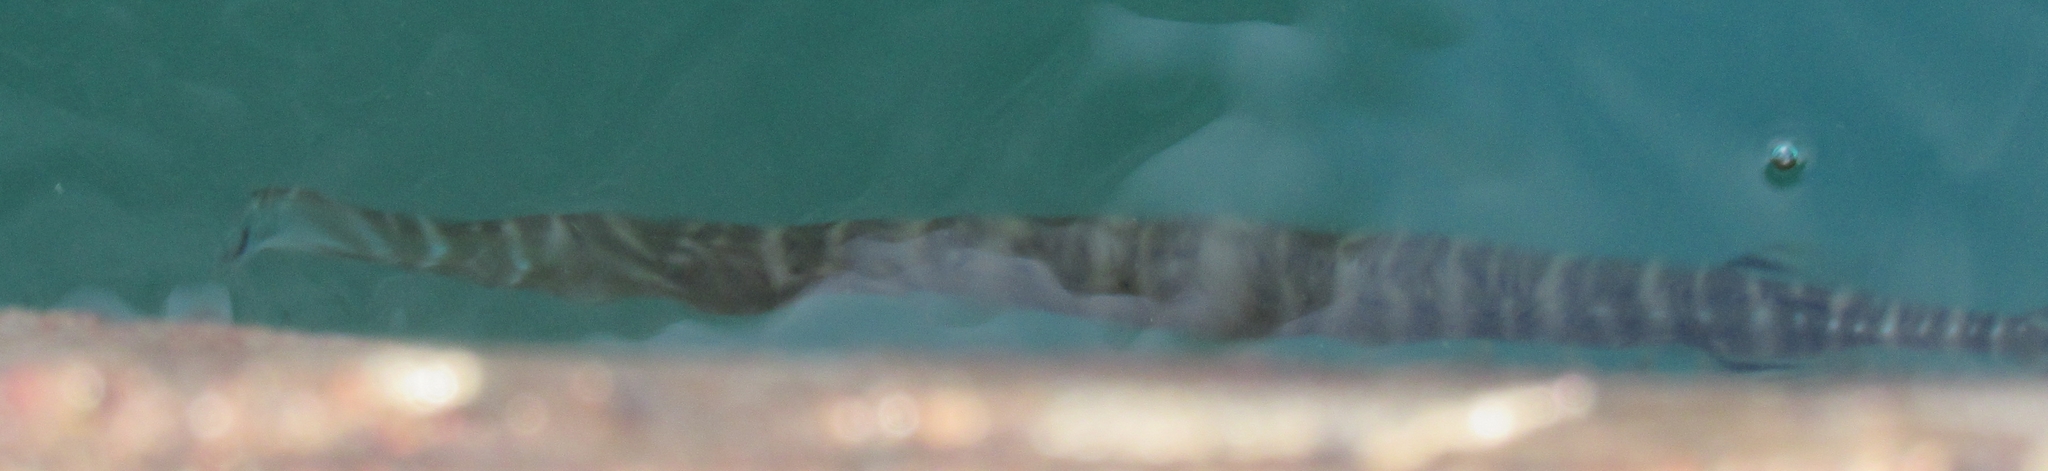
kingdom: Animalia
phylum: Chordata
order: Syngnathiformes
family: Aulostomidae
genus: Aulostomus
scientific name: Aulostomus maculatus
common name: West atlantic trumpetfish
